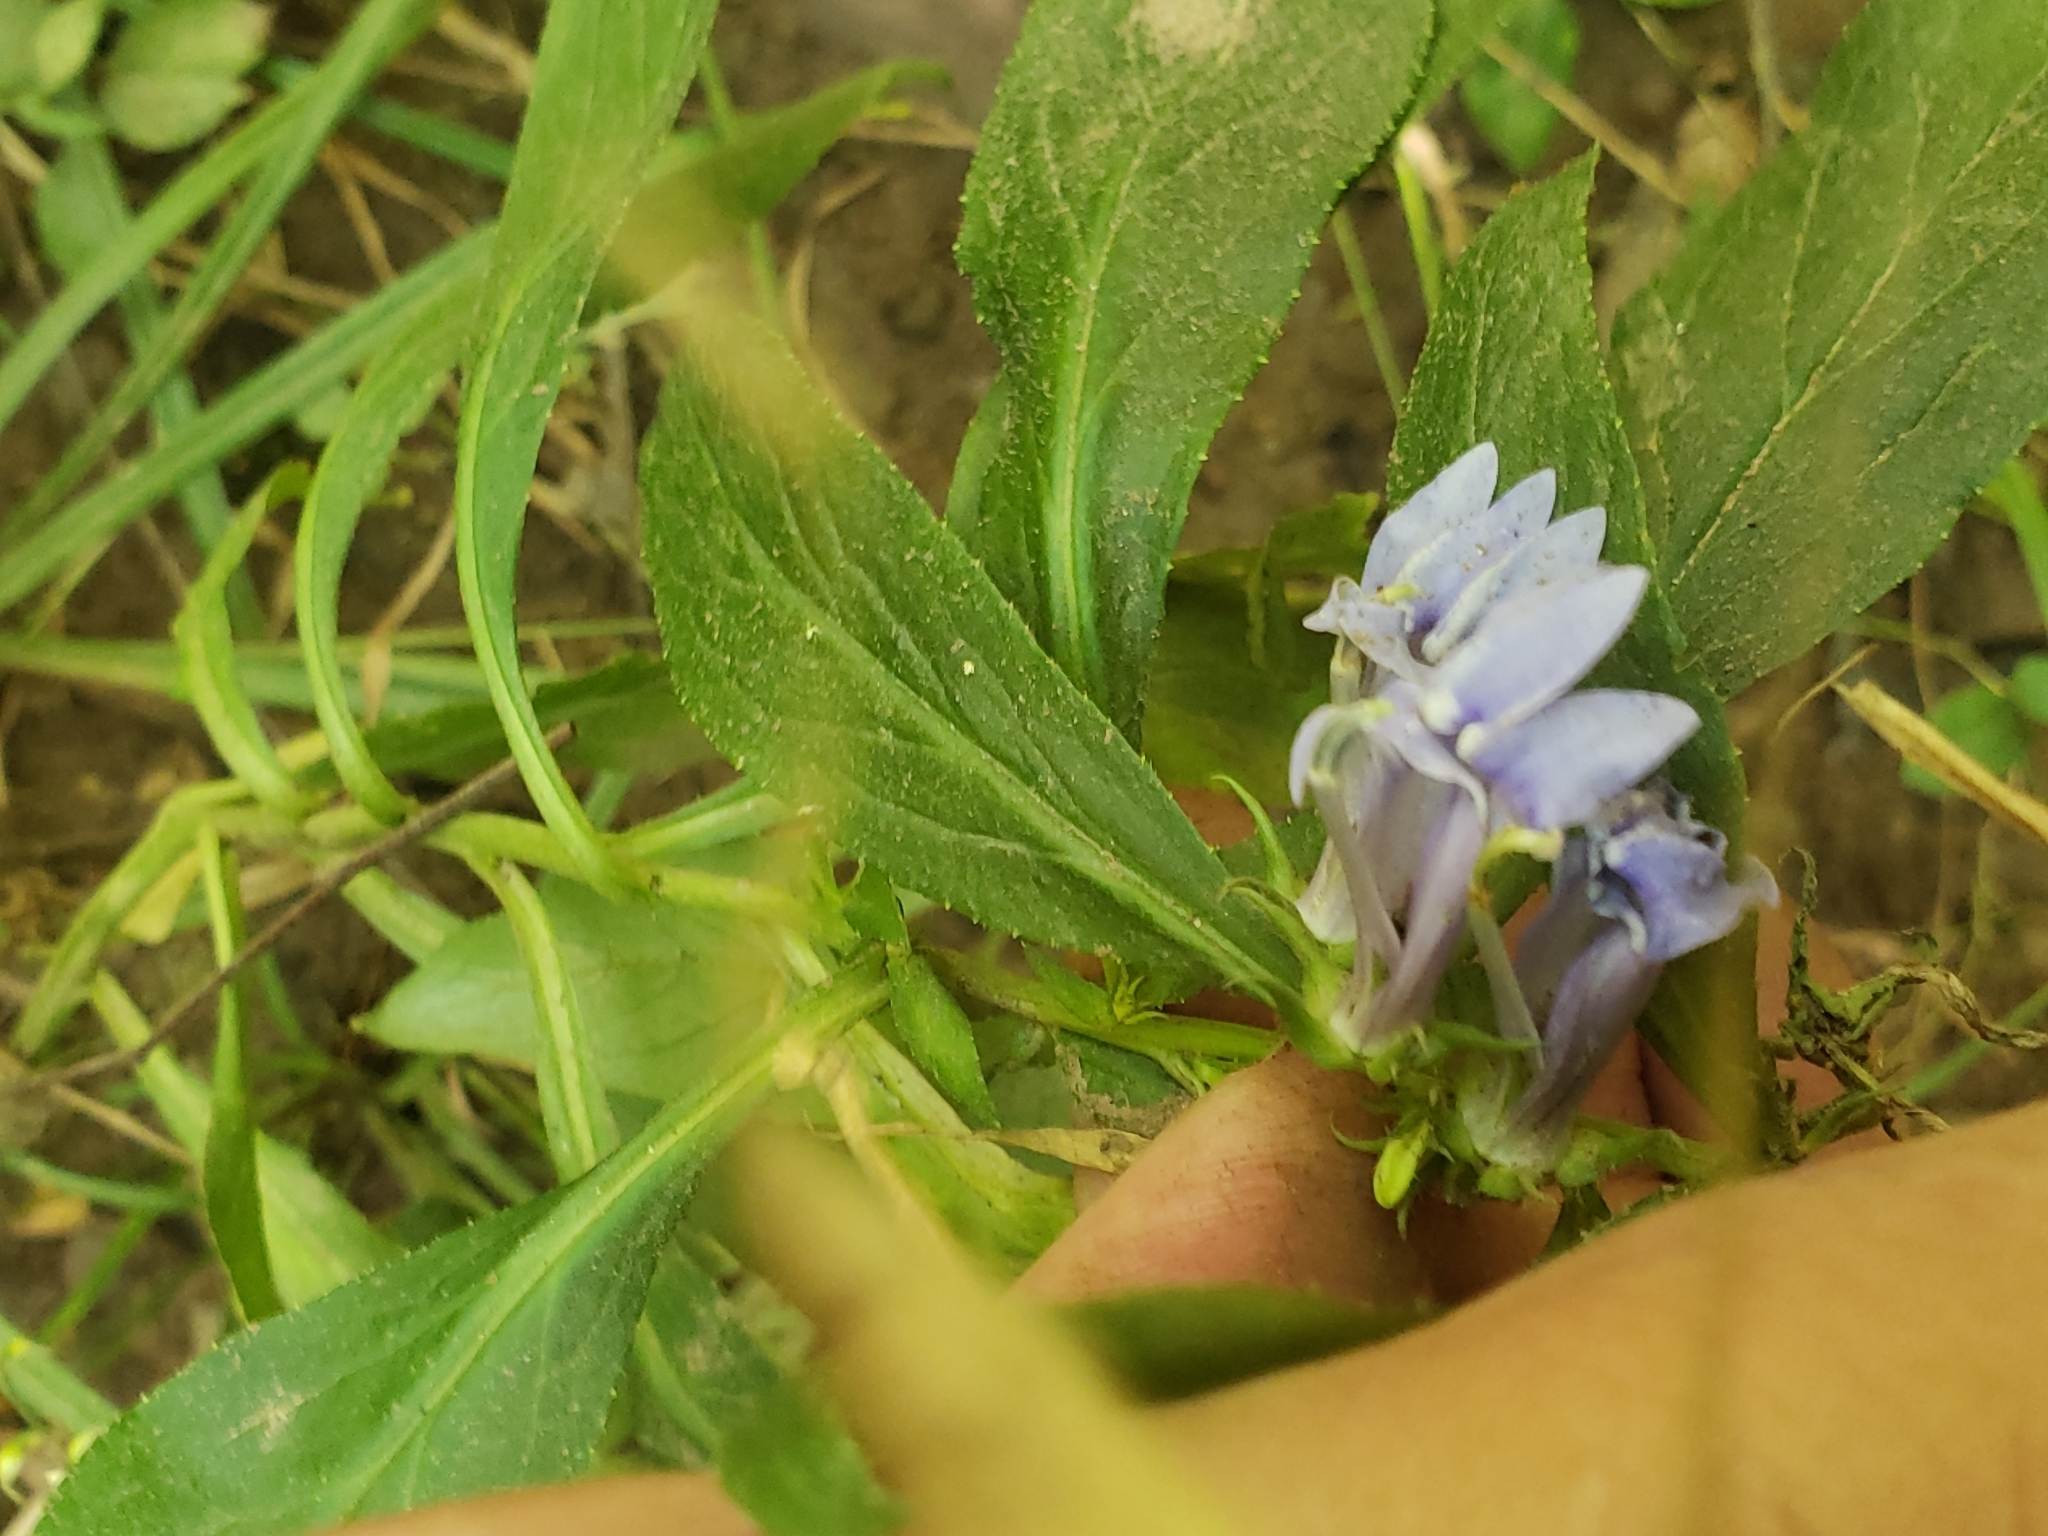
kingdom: Plantae
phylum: Tracheophyta
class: Magnoliopsida
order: Asterales
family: Campanulaceae
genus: Lobelia
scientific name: Lobelia siphilitica
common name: Great lobelia
